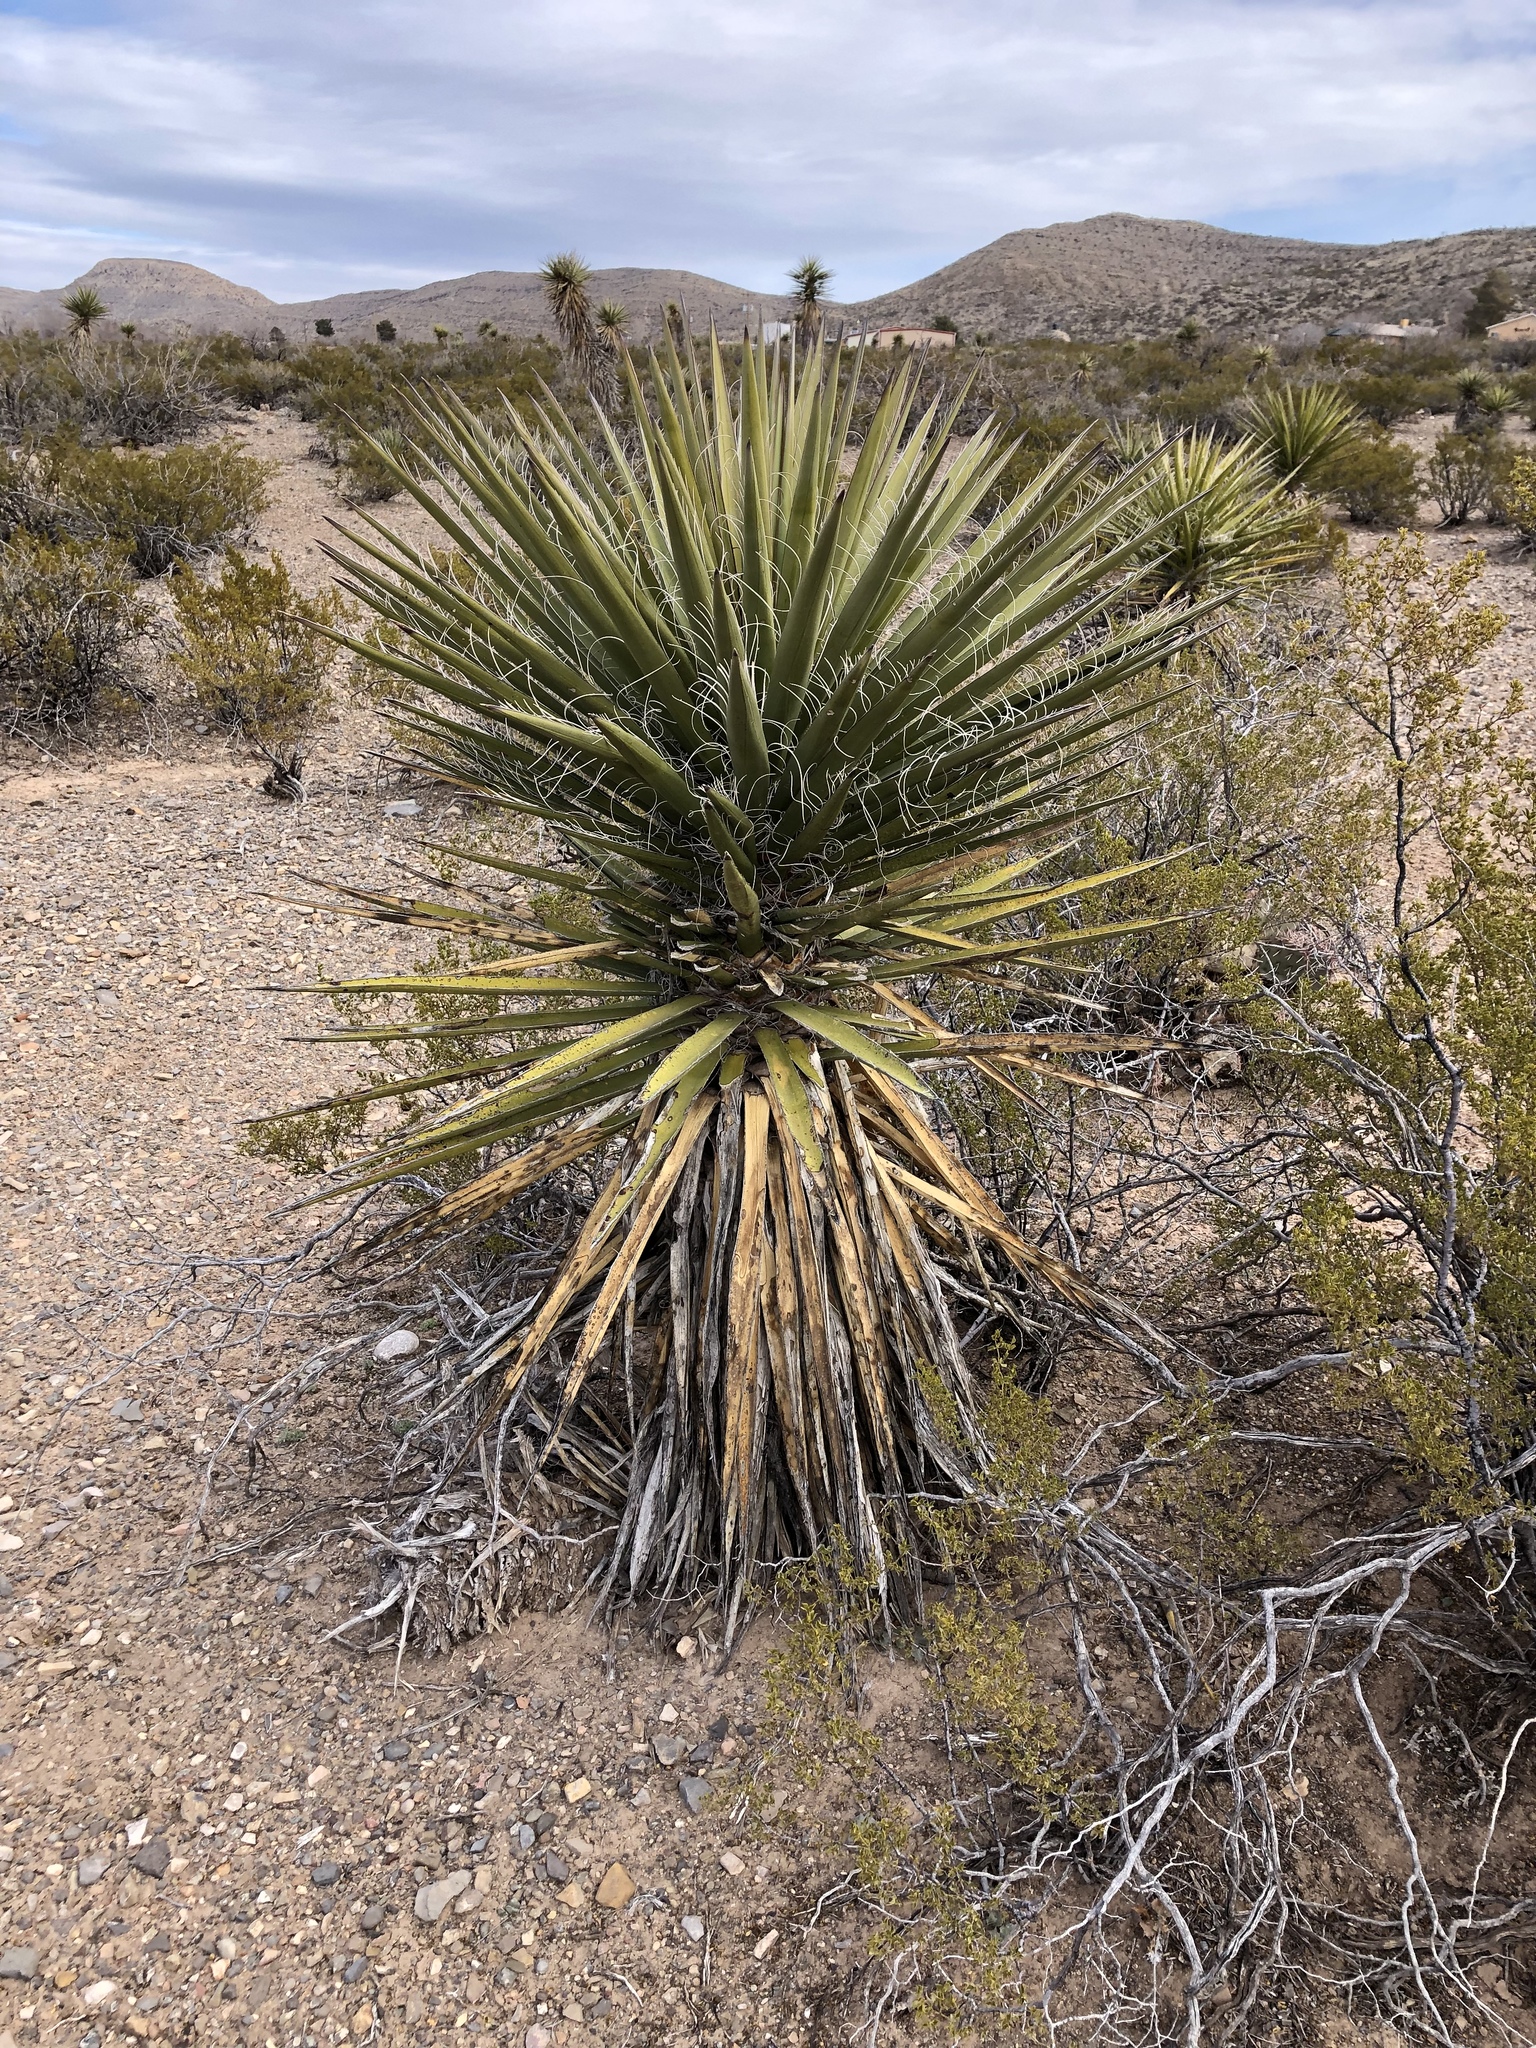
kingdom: Plantae
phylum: Tracheophyta
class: Liliopsida
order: Asparagales
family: Asparagaceae
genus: Yucca
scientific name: Yucca treculiana
